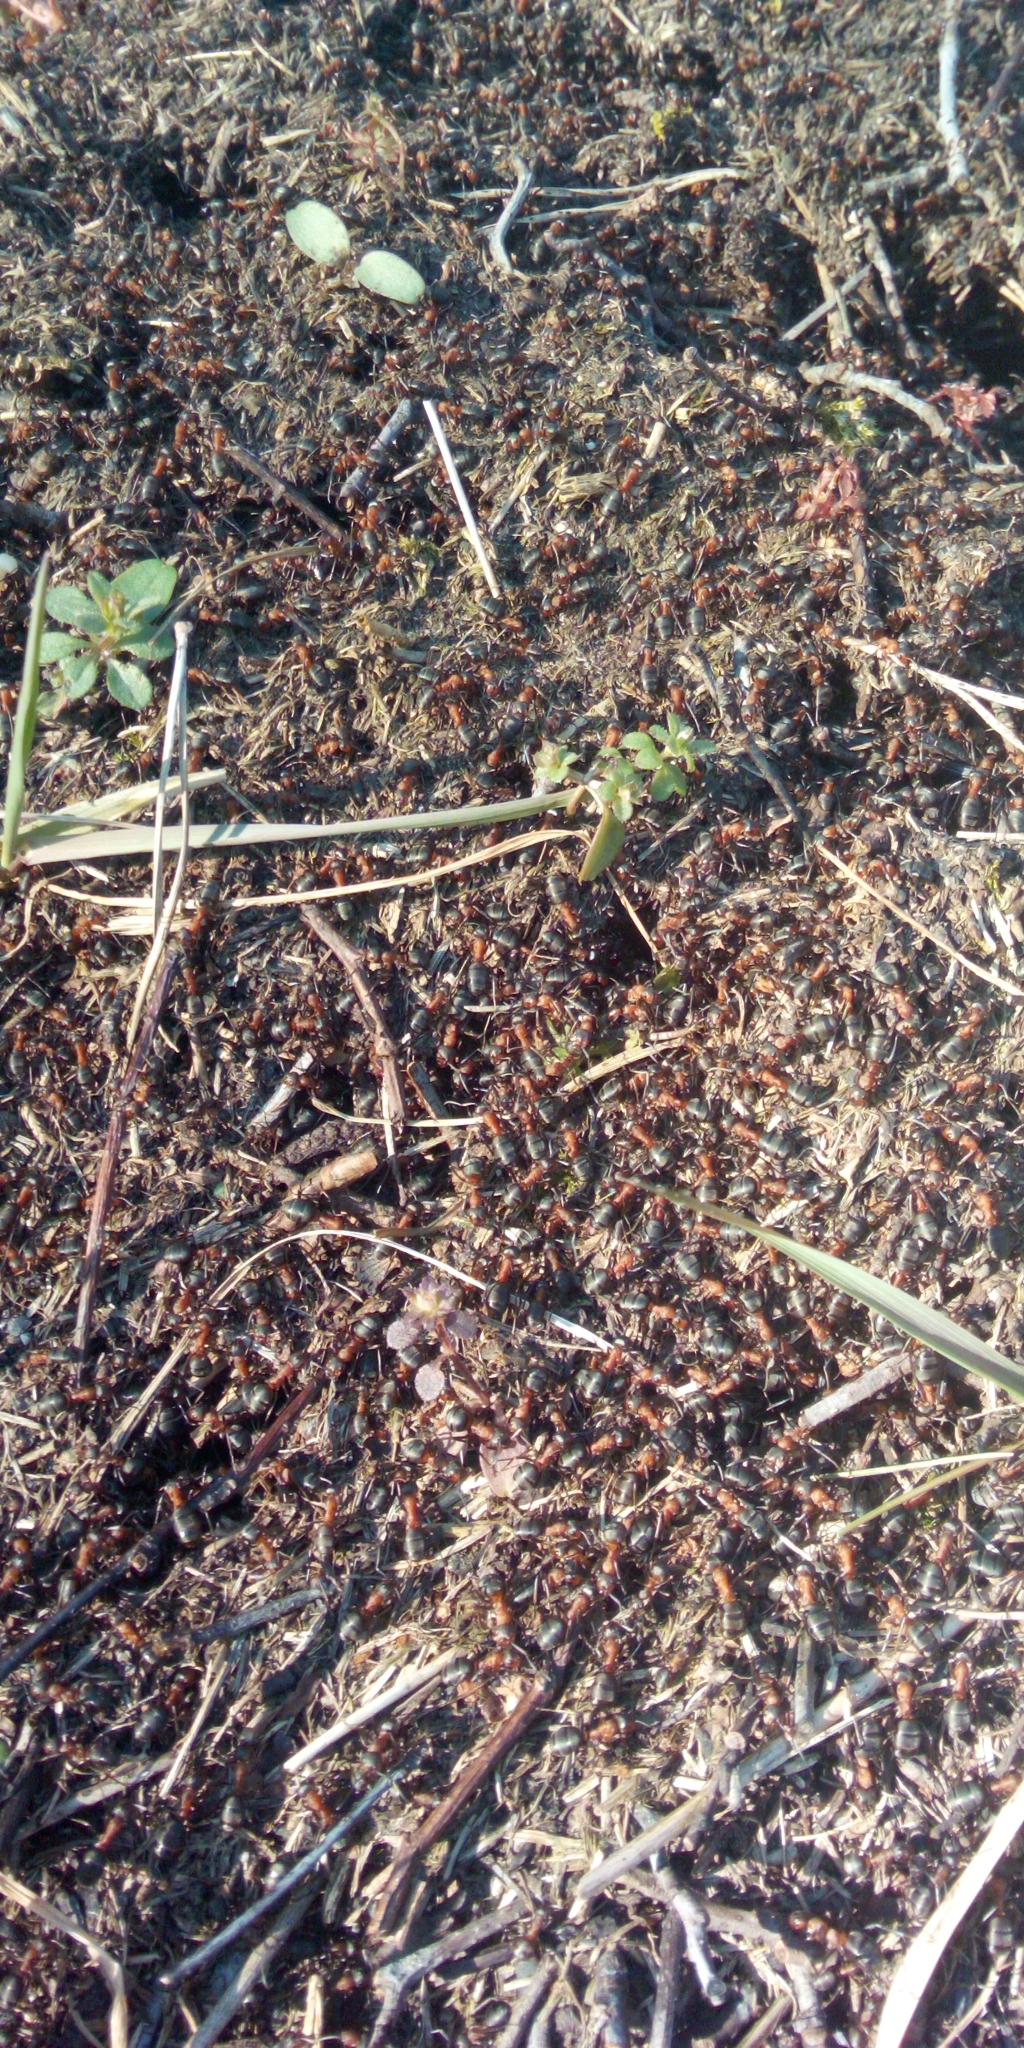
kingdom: Animalia
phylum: Arthropoda
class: Insecta
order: Hymenoptera
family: Formicidae
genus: Formica
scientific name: Formica
